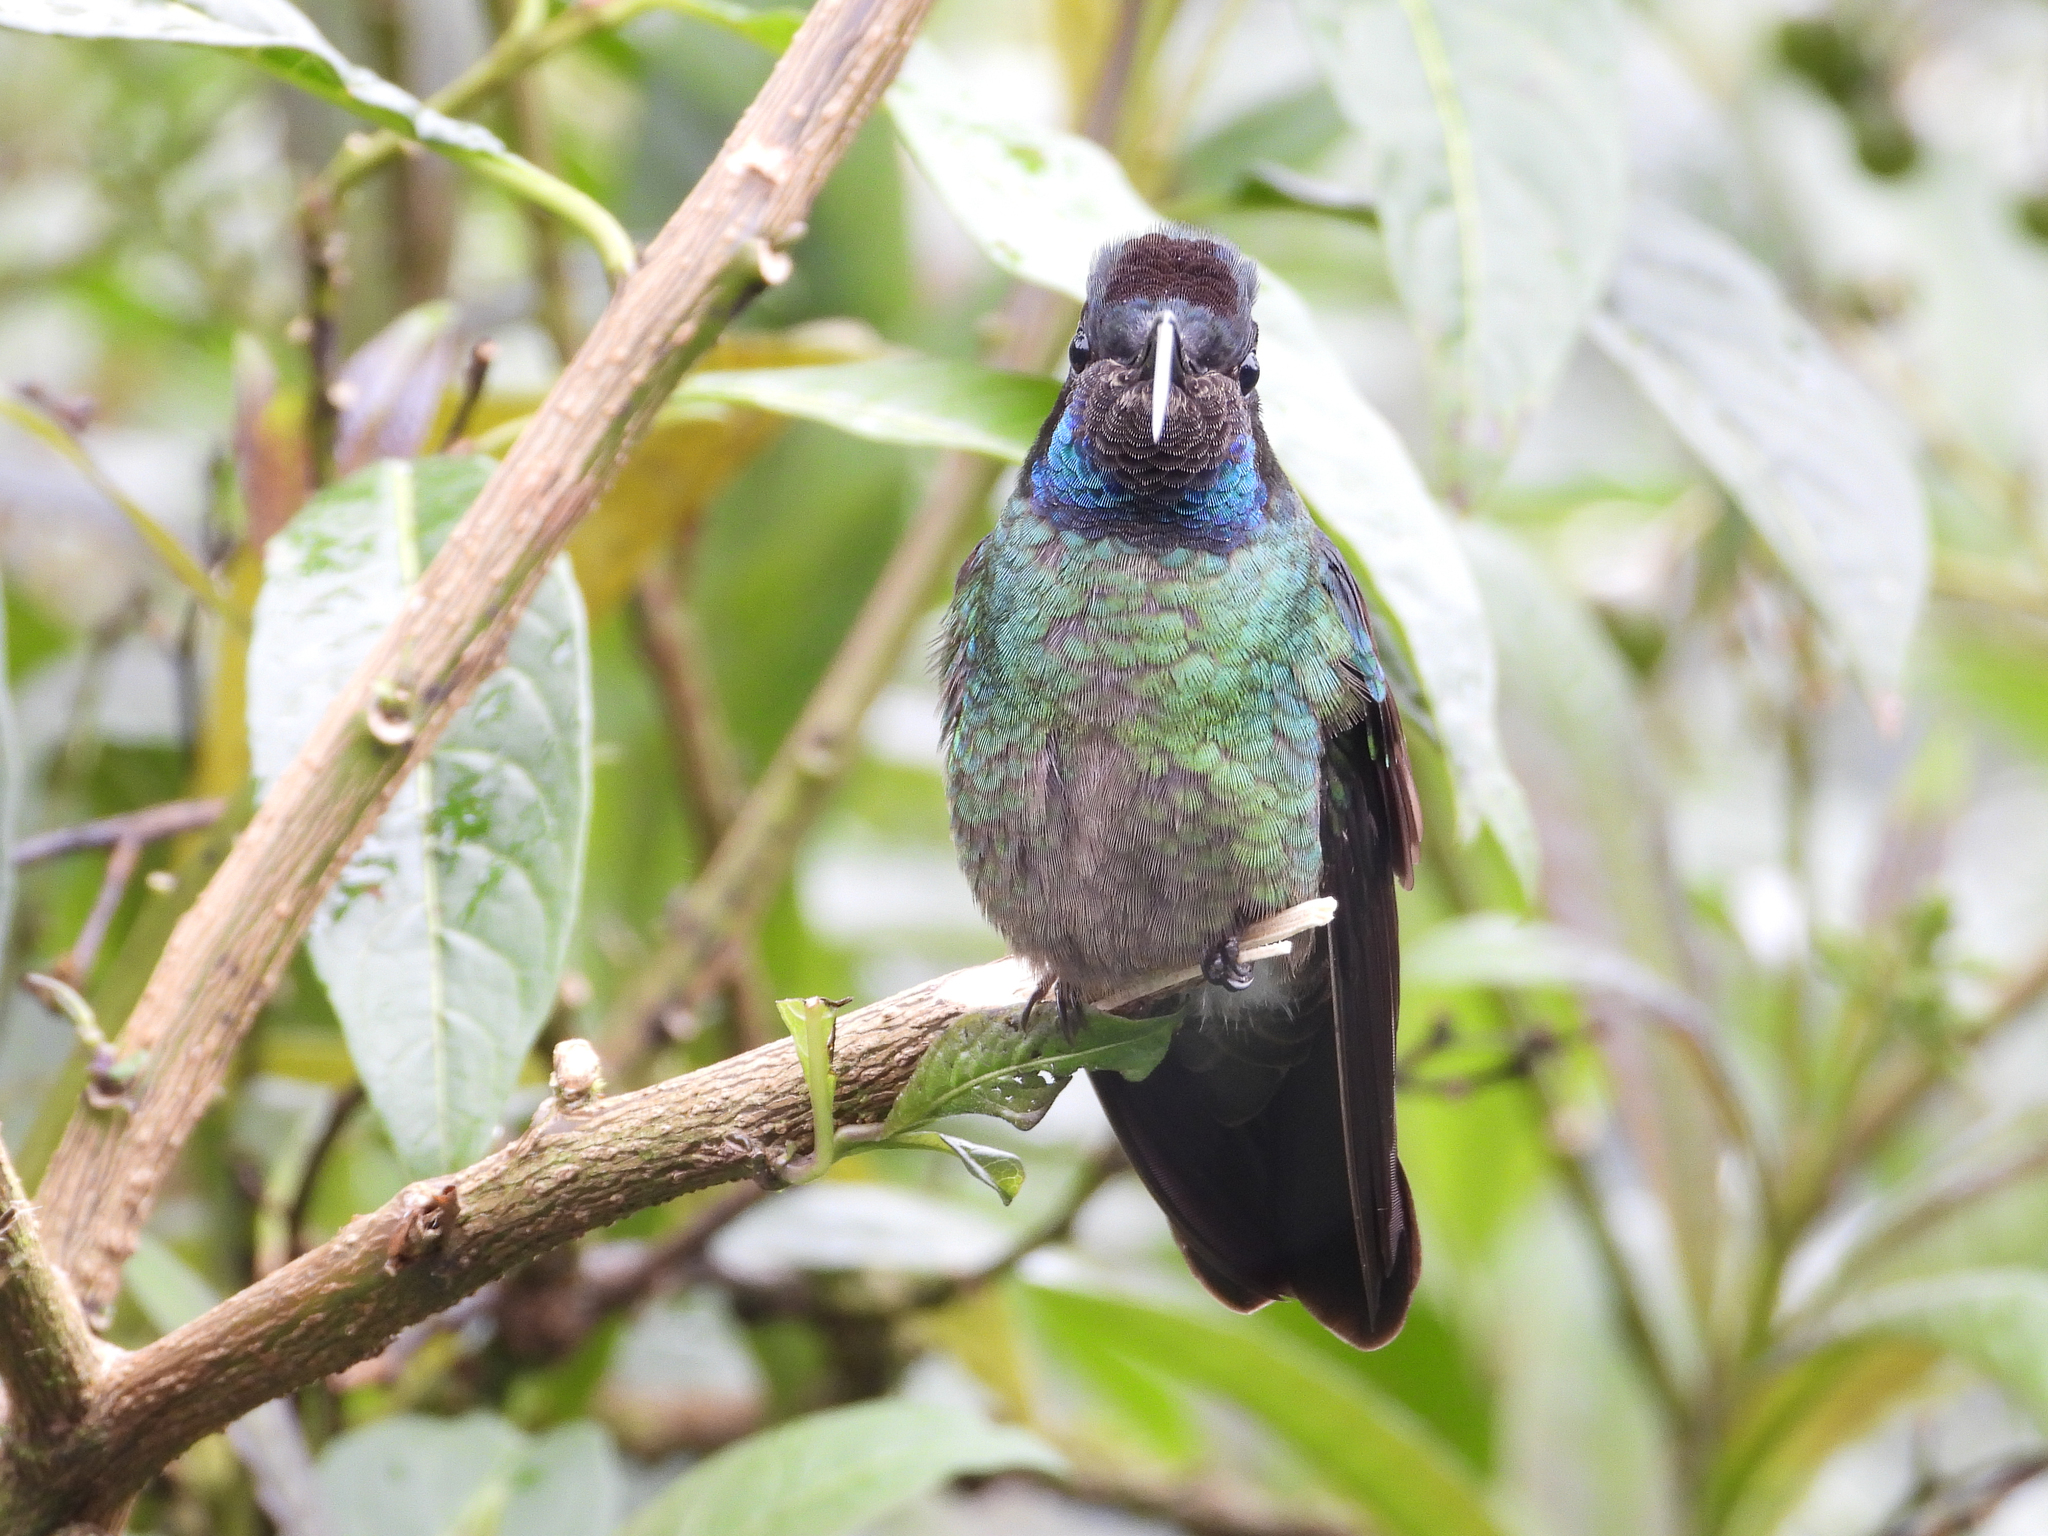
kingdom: Animalia
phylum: Chordata
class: Aves
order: Apodiformes
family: Trochilidae
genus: Eugenes
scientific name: Eugenes spectabilis
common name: Talamanca hummingbird
